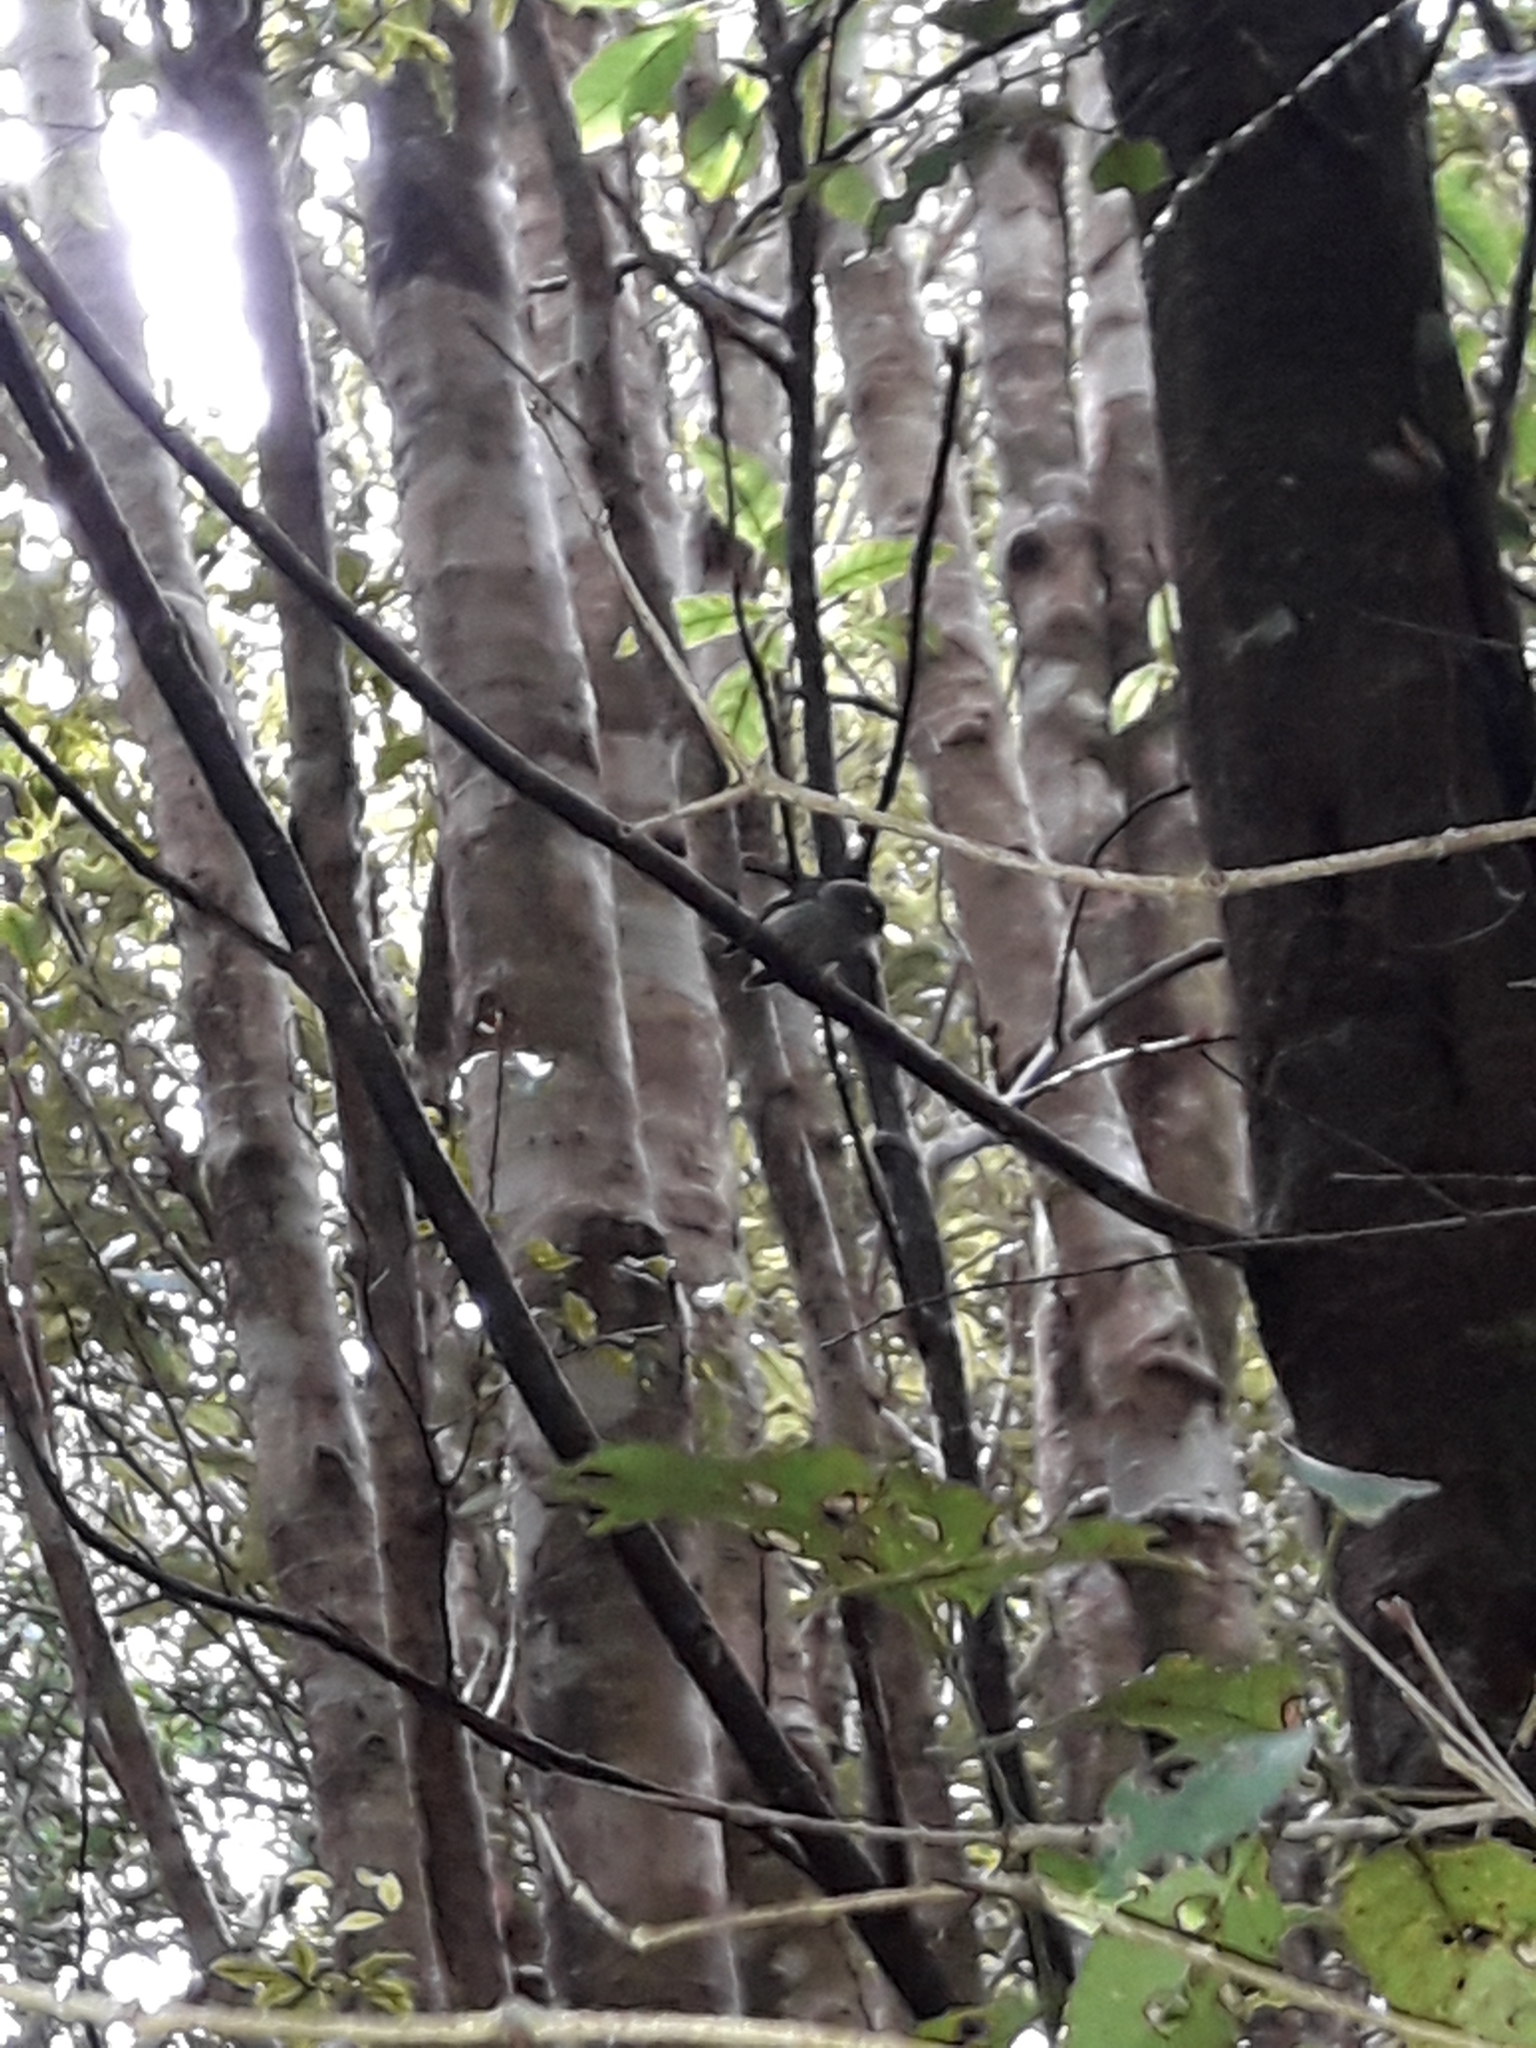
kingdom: Animalia
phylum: Chordata
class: Aves
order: Passeriformes
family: Petroicidae
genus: Petroica
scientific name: Petroica macrocephala
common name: Tomtit
